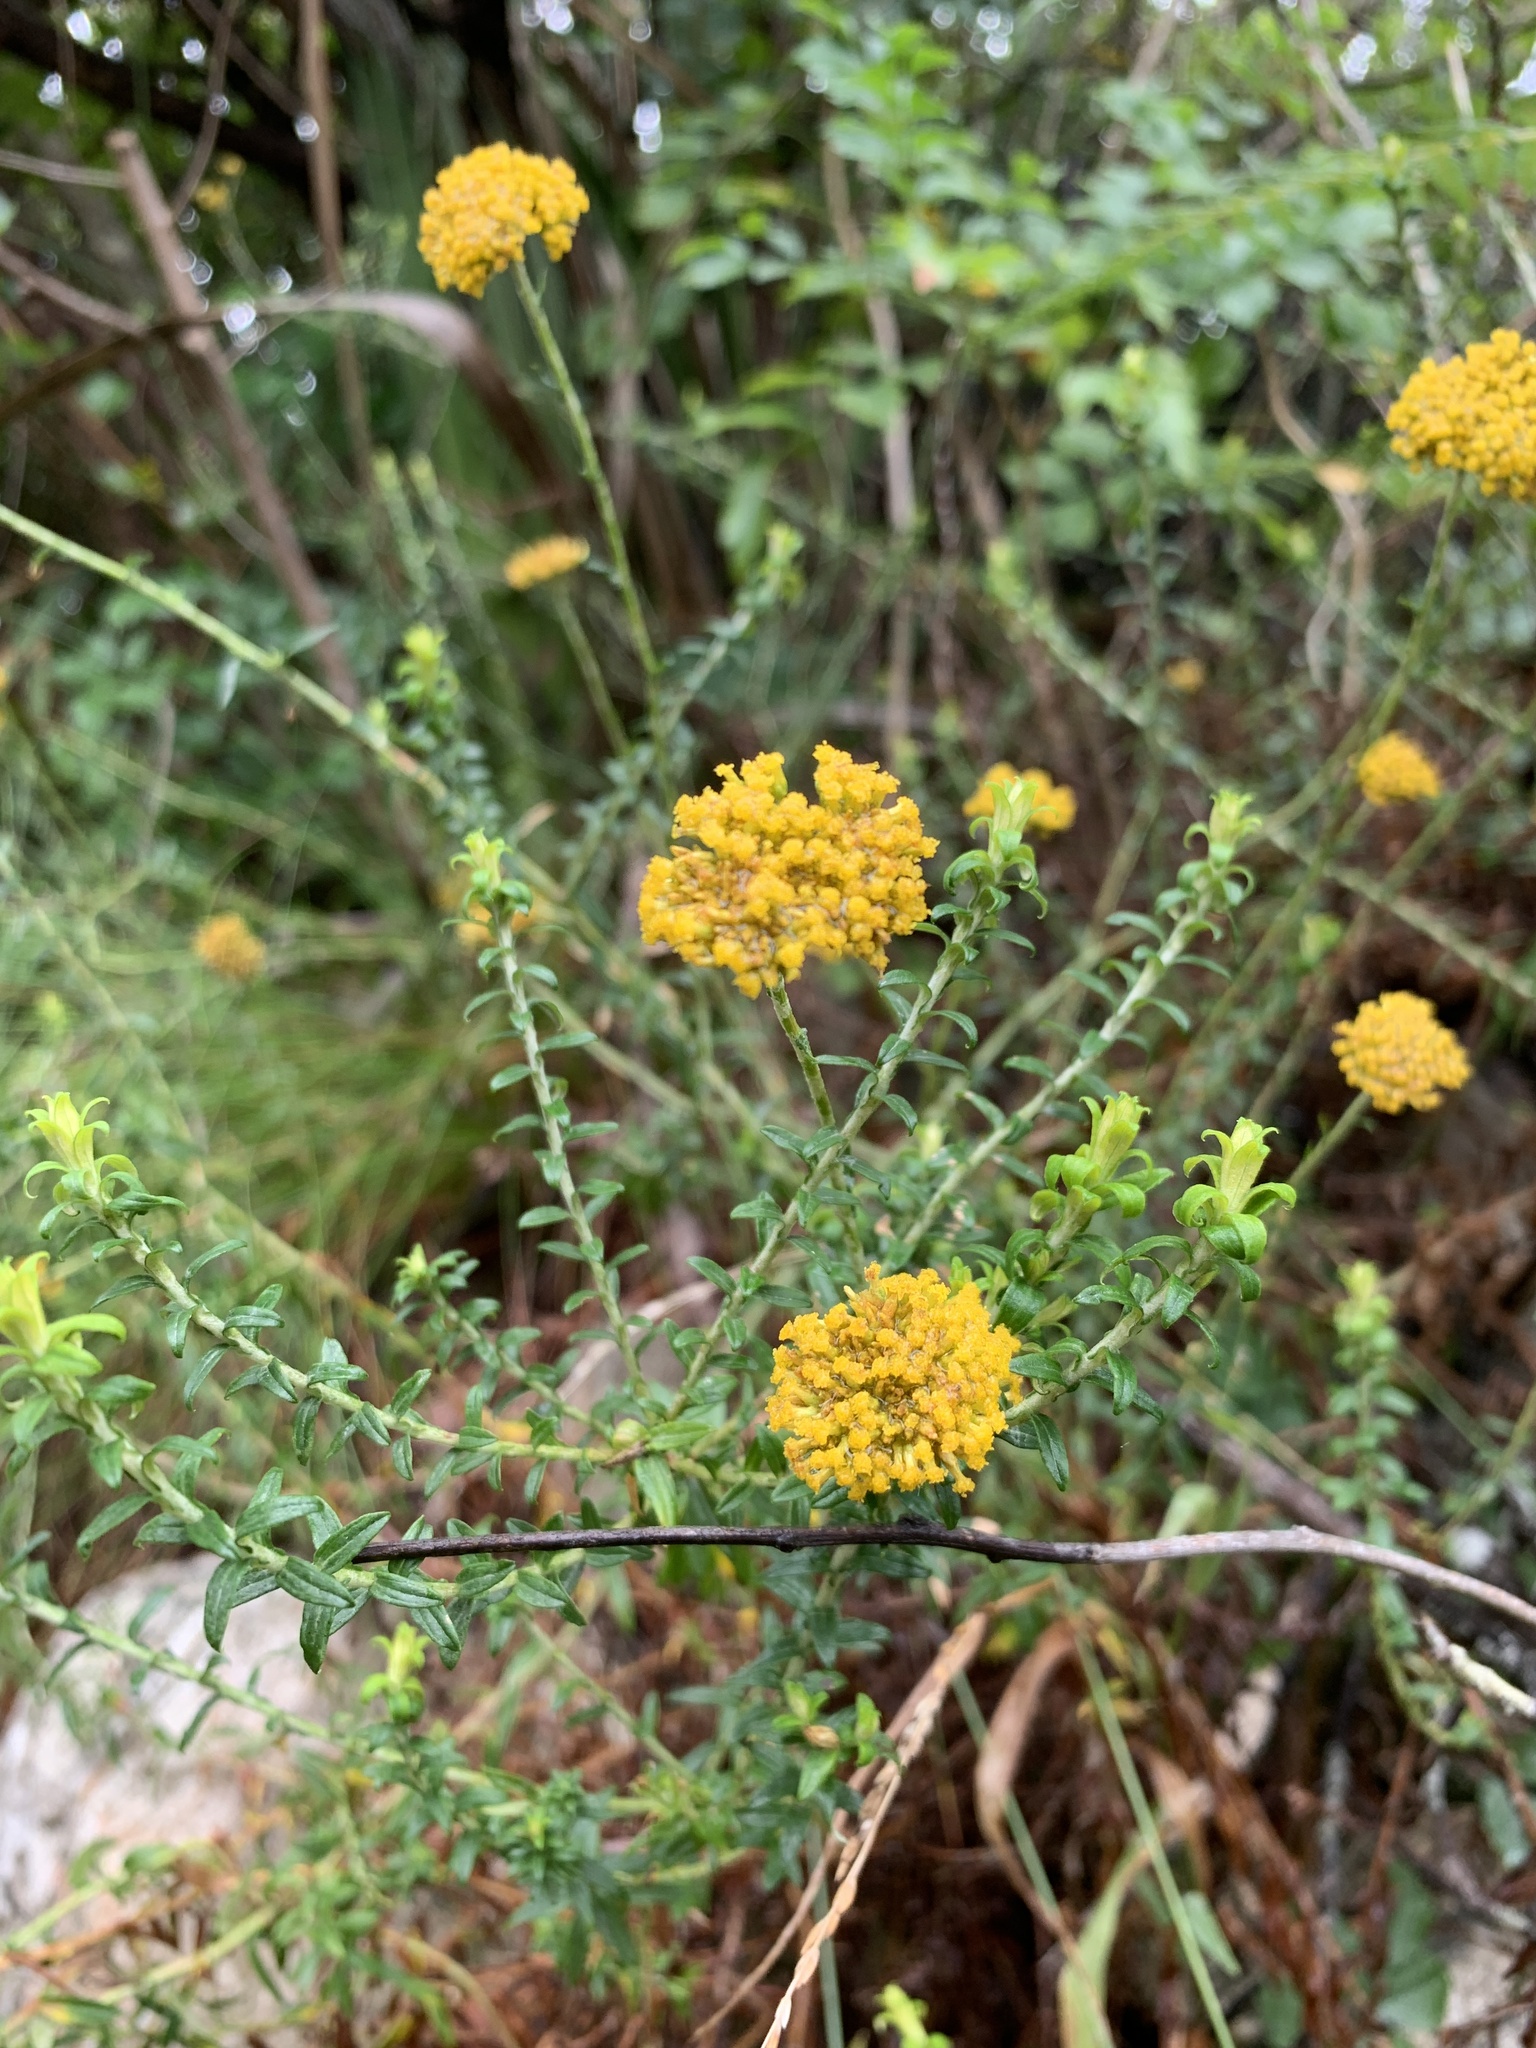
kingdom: Plantae
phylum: Tracheophyta
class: Magnoliopsida
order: Asterales
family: Asteraceae
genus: Helichrysum
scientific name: Helichrysum cymosum
